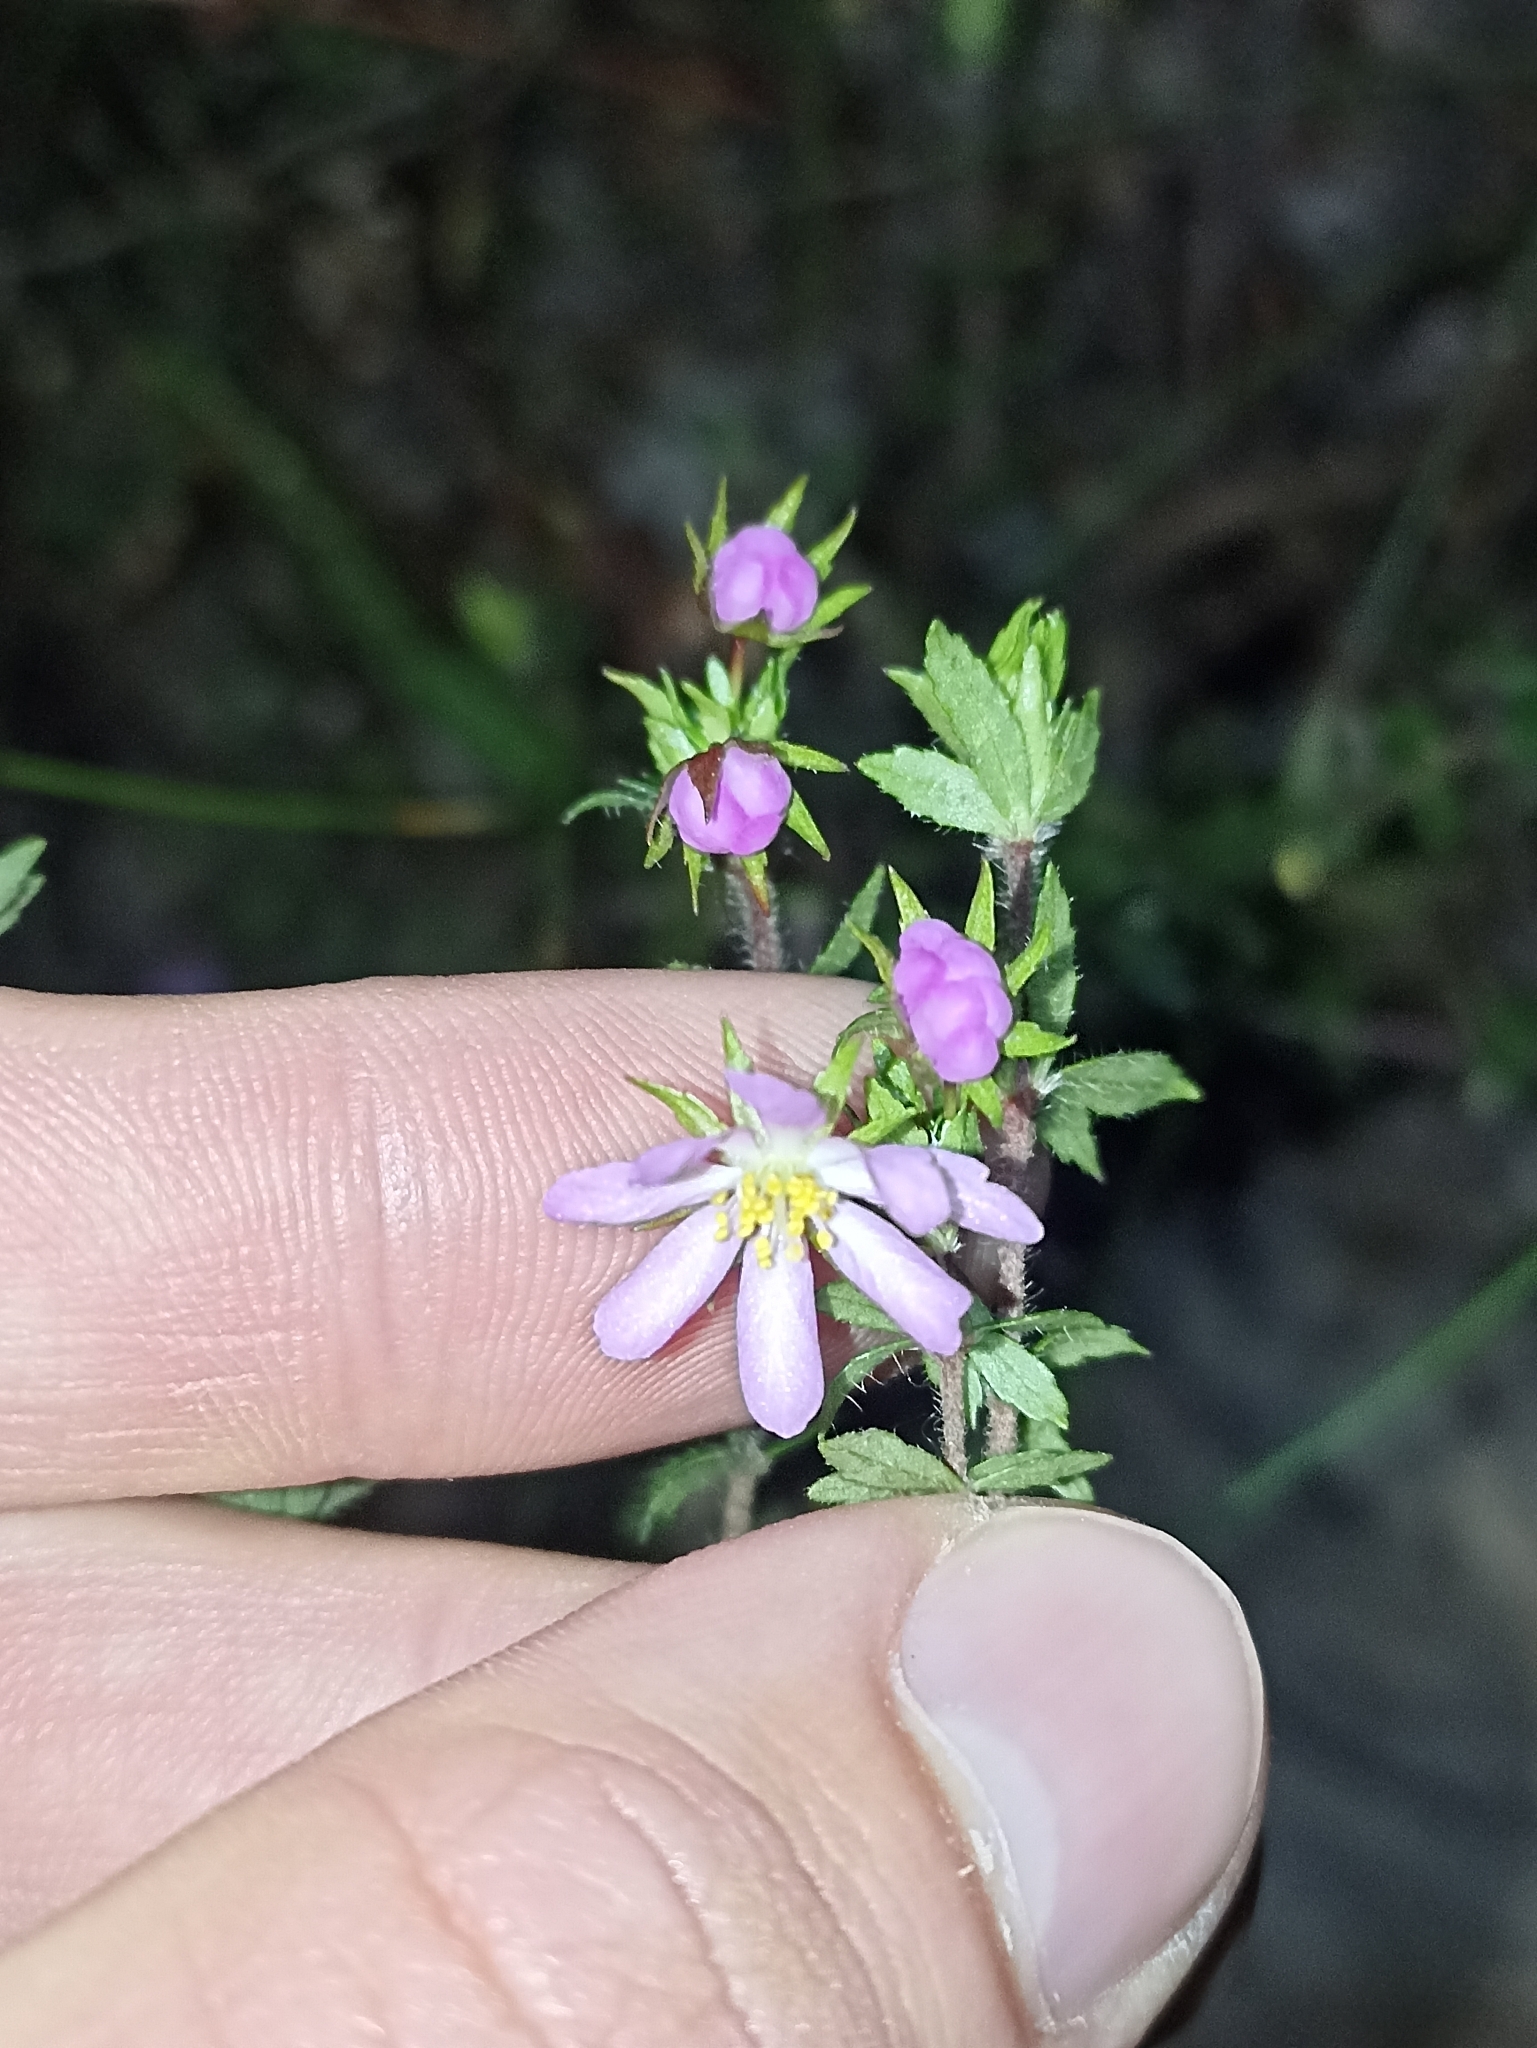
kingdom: Plantae
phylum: Tracheophyta
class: Magnoliopsida
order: Oxalidales
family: Cunoniaceae
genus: Bauera
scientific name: Bauera rubioides
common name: River-rose
